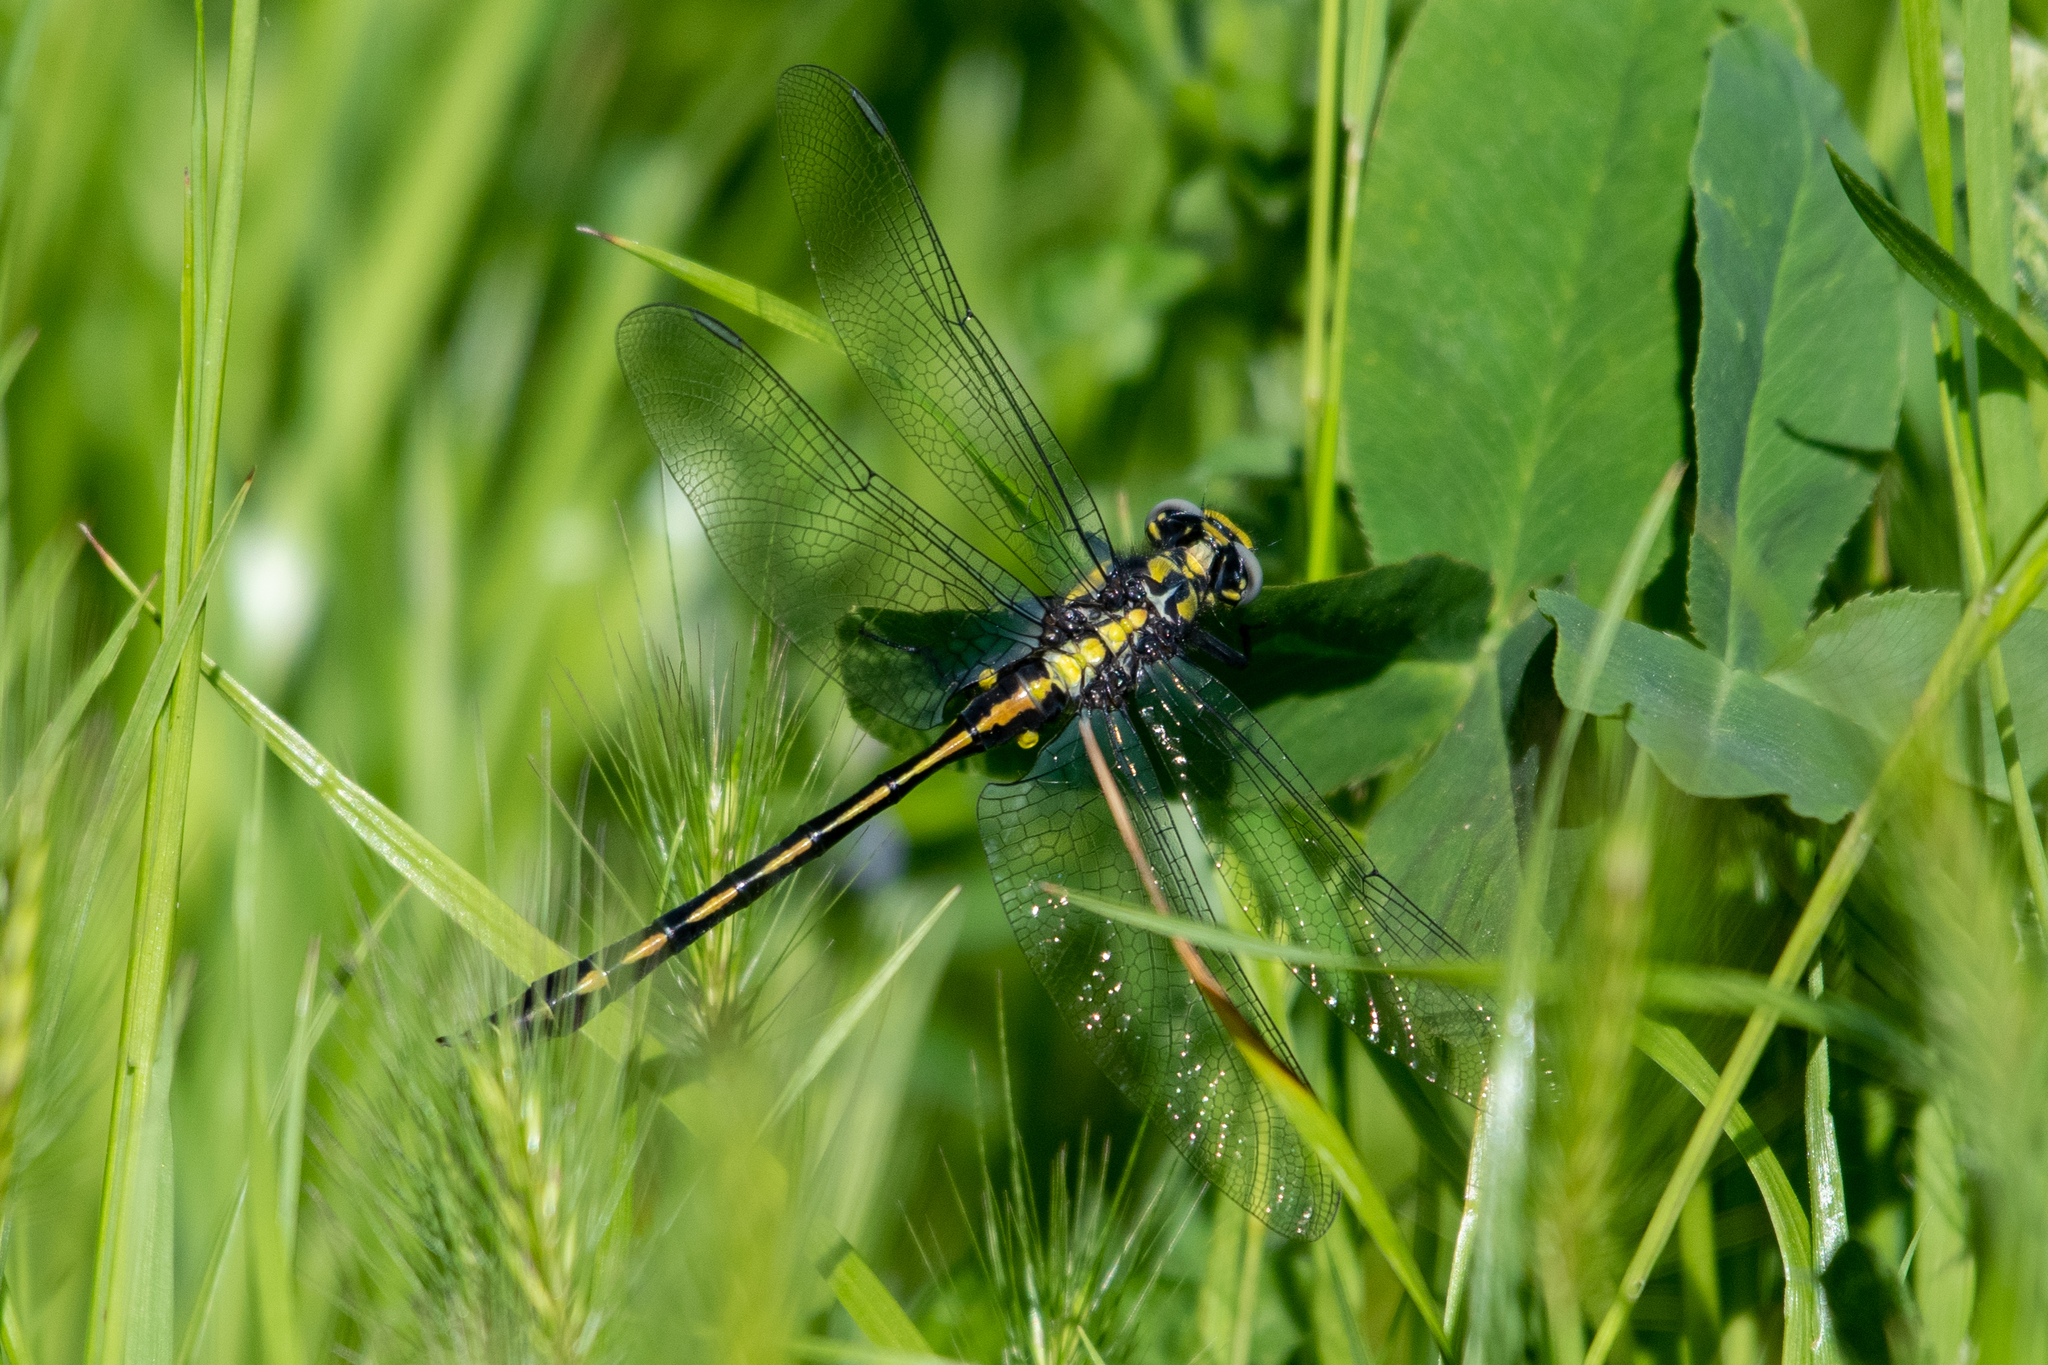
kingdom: Animalia
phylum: Arthropoda
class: Insecta
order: Odonata
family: Gomphidae
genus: Phanogomphus
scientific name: Phanogomphus kurilis
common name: Pacific clubtail
